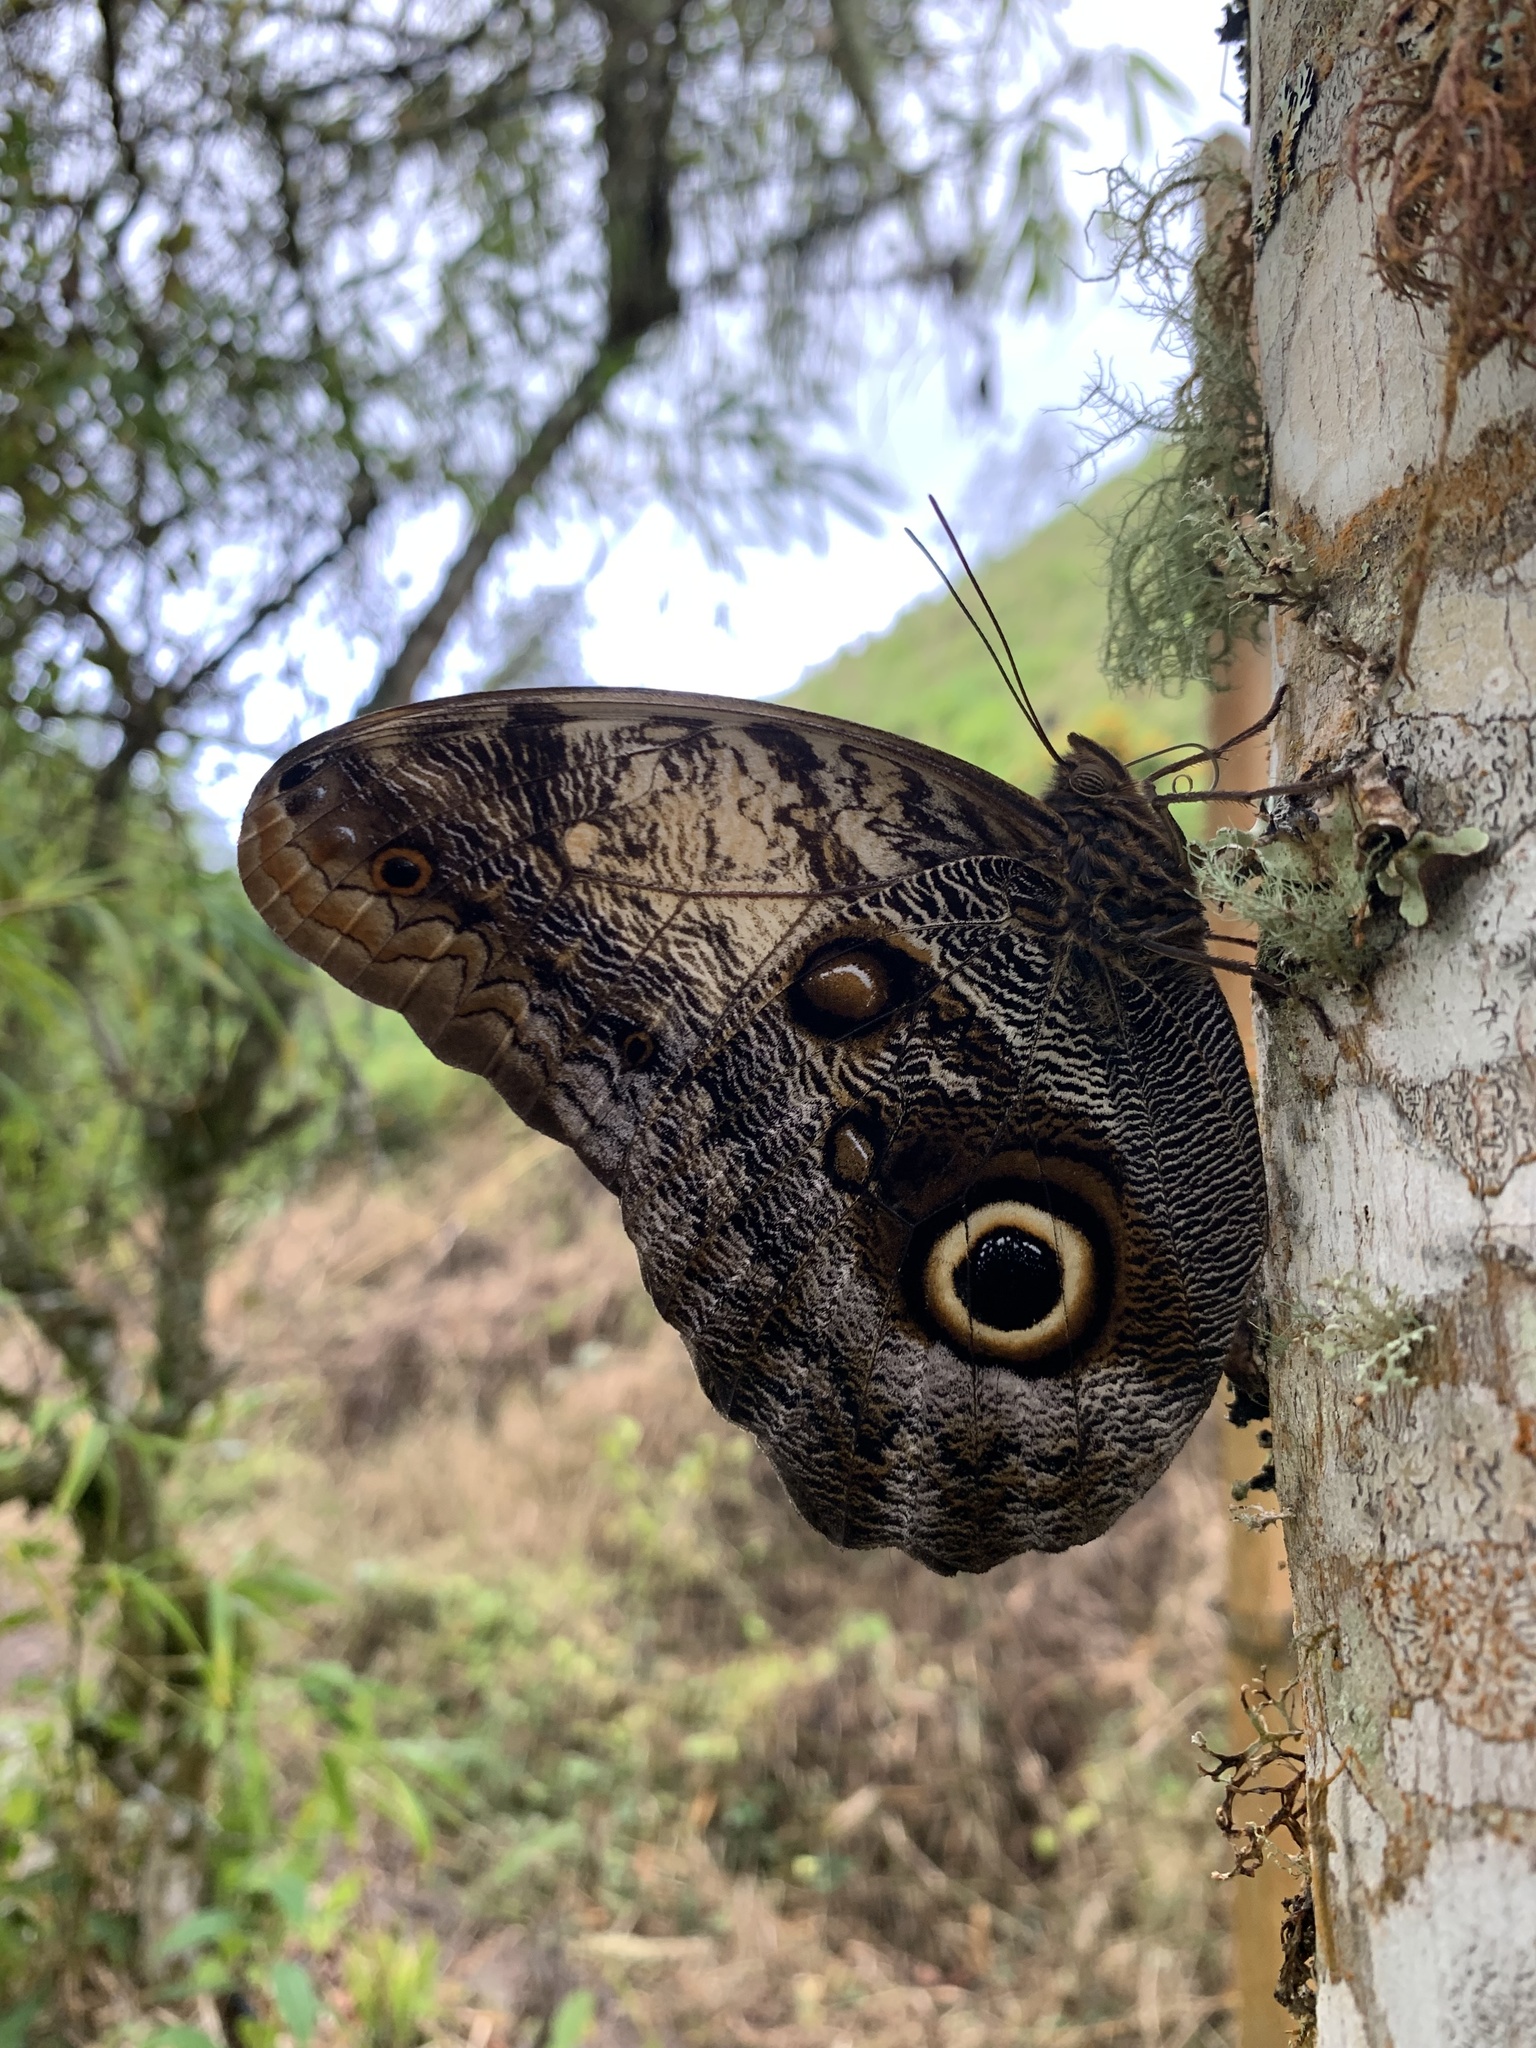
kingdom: Animalia
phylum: Arthropoda
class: Insecta
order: Lepidoptera
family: Nymphalidae
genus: Caligo
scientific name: Caligo oileus
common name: Oileus owl-butterfly
